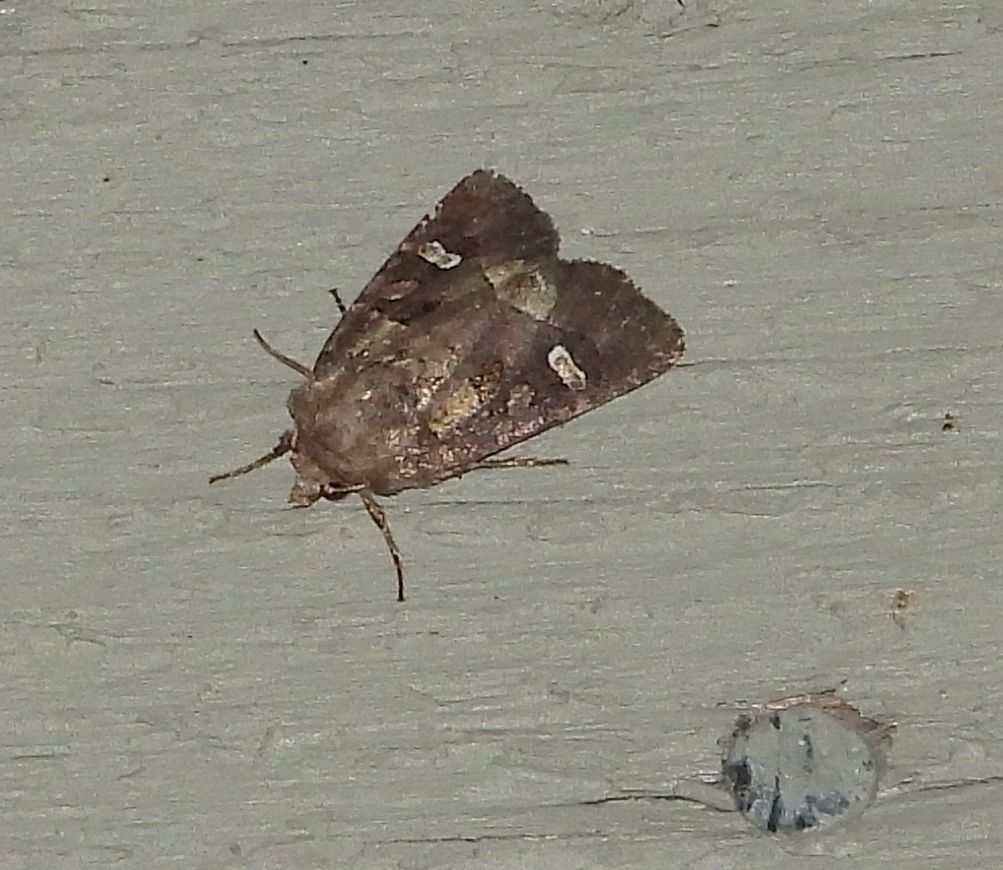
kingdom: Animalia
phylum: Arthropoda
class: Insecta
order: Lepidoptera
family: Noctuidae
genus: Lacinipolia
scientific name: Lacinipolia renigera
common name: Kidney-spotted minor
